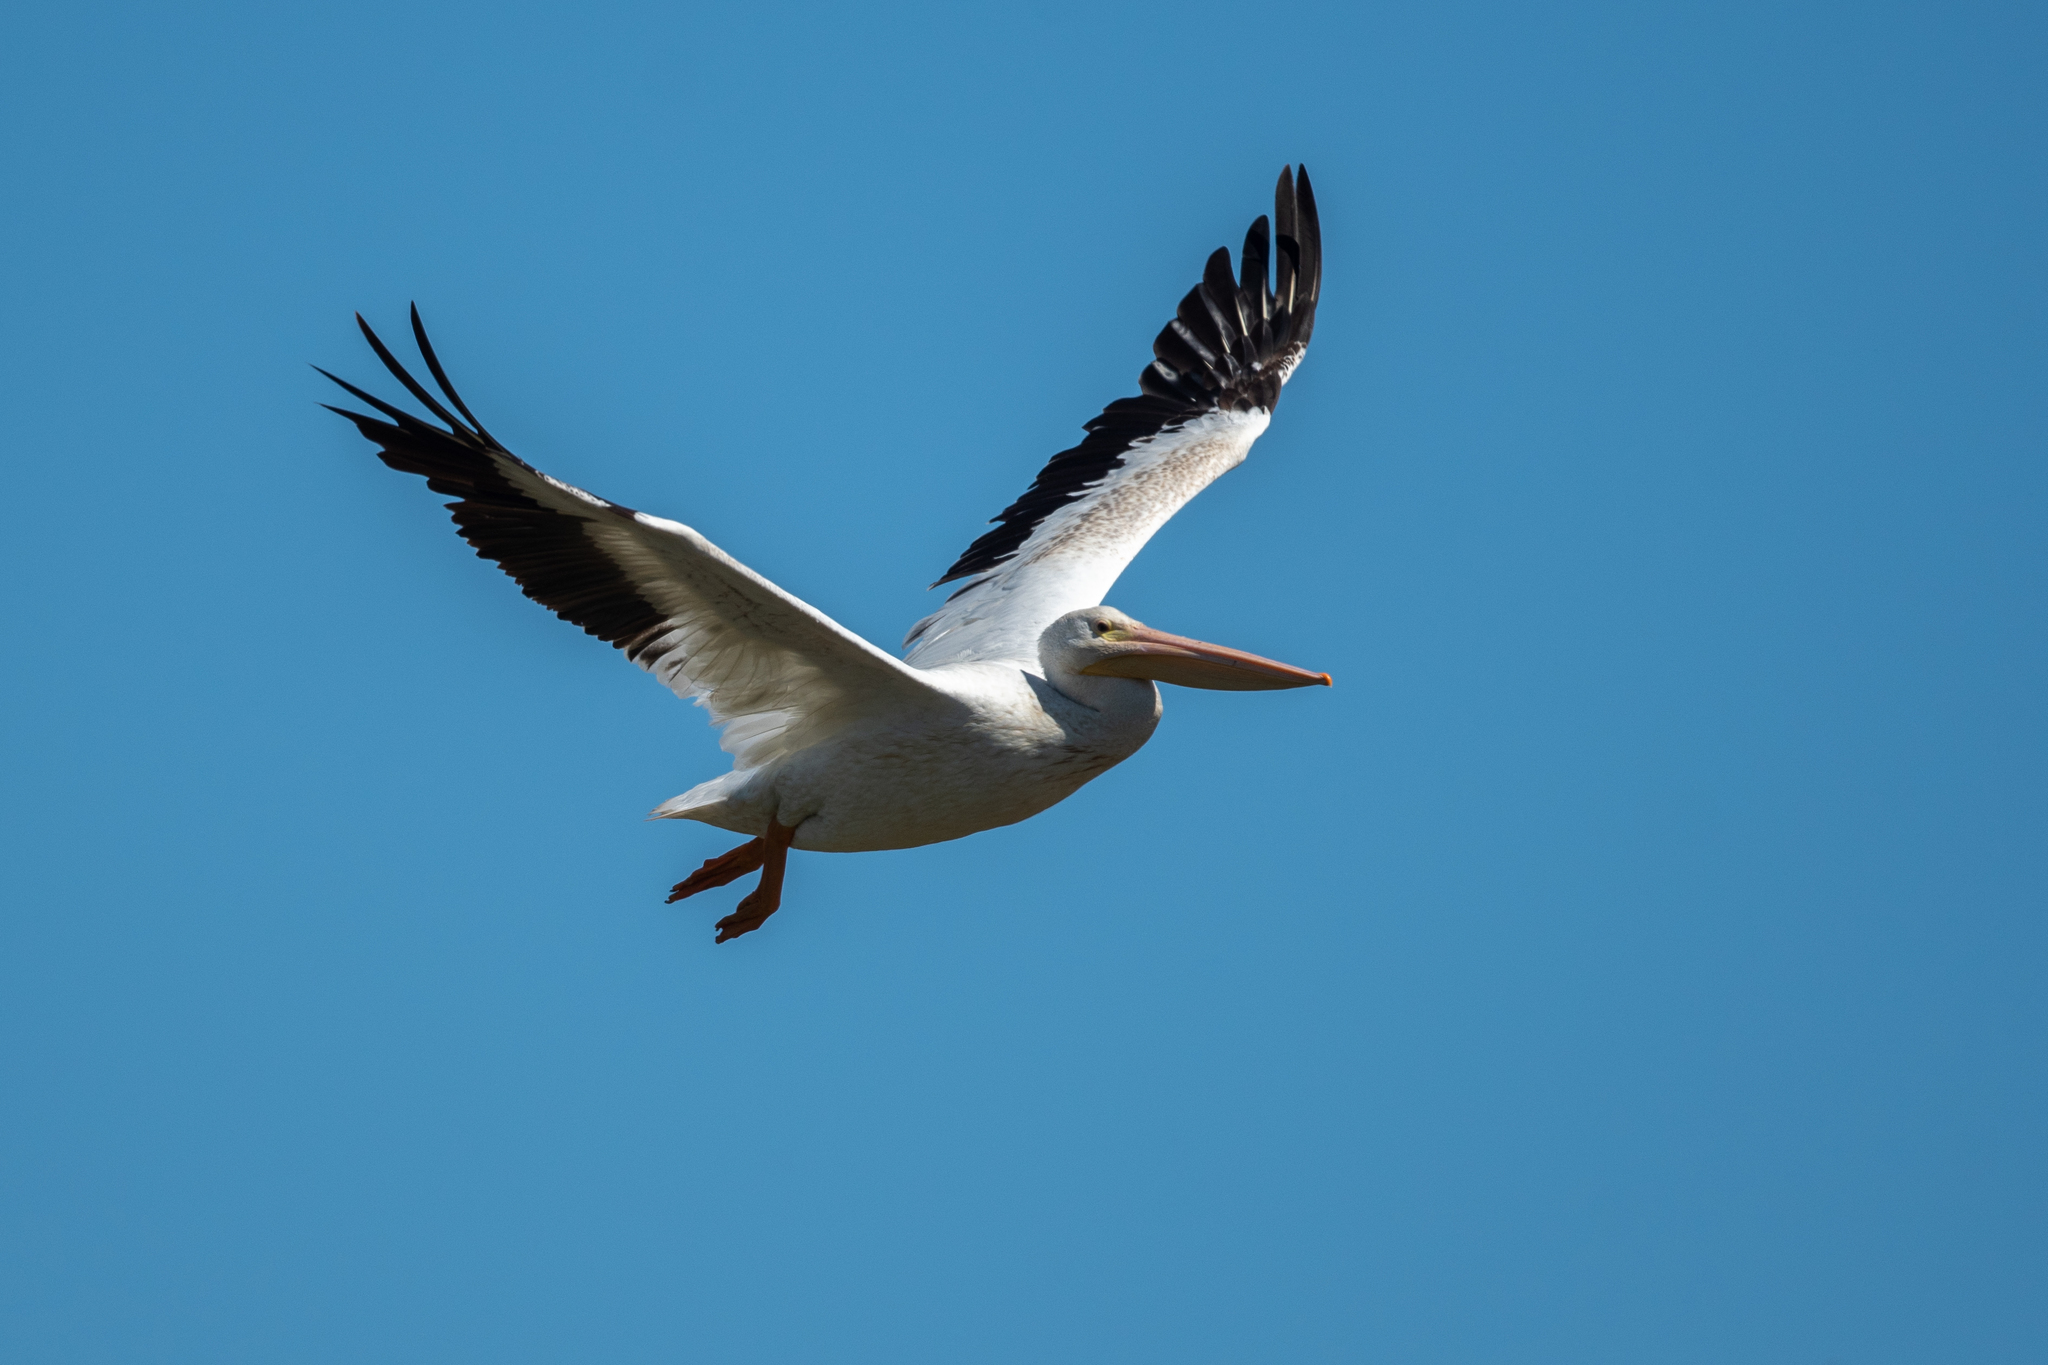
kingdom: Animalia
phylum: Chordata
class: Aves
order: Pelecaniformes
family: Pelecanidae
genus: Pelecanus
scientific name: Pelecanus erythrorhynchos
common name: American white pelican
